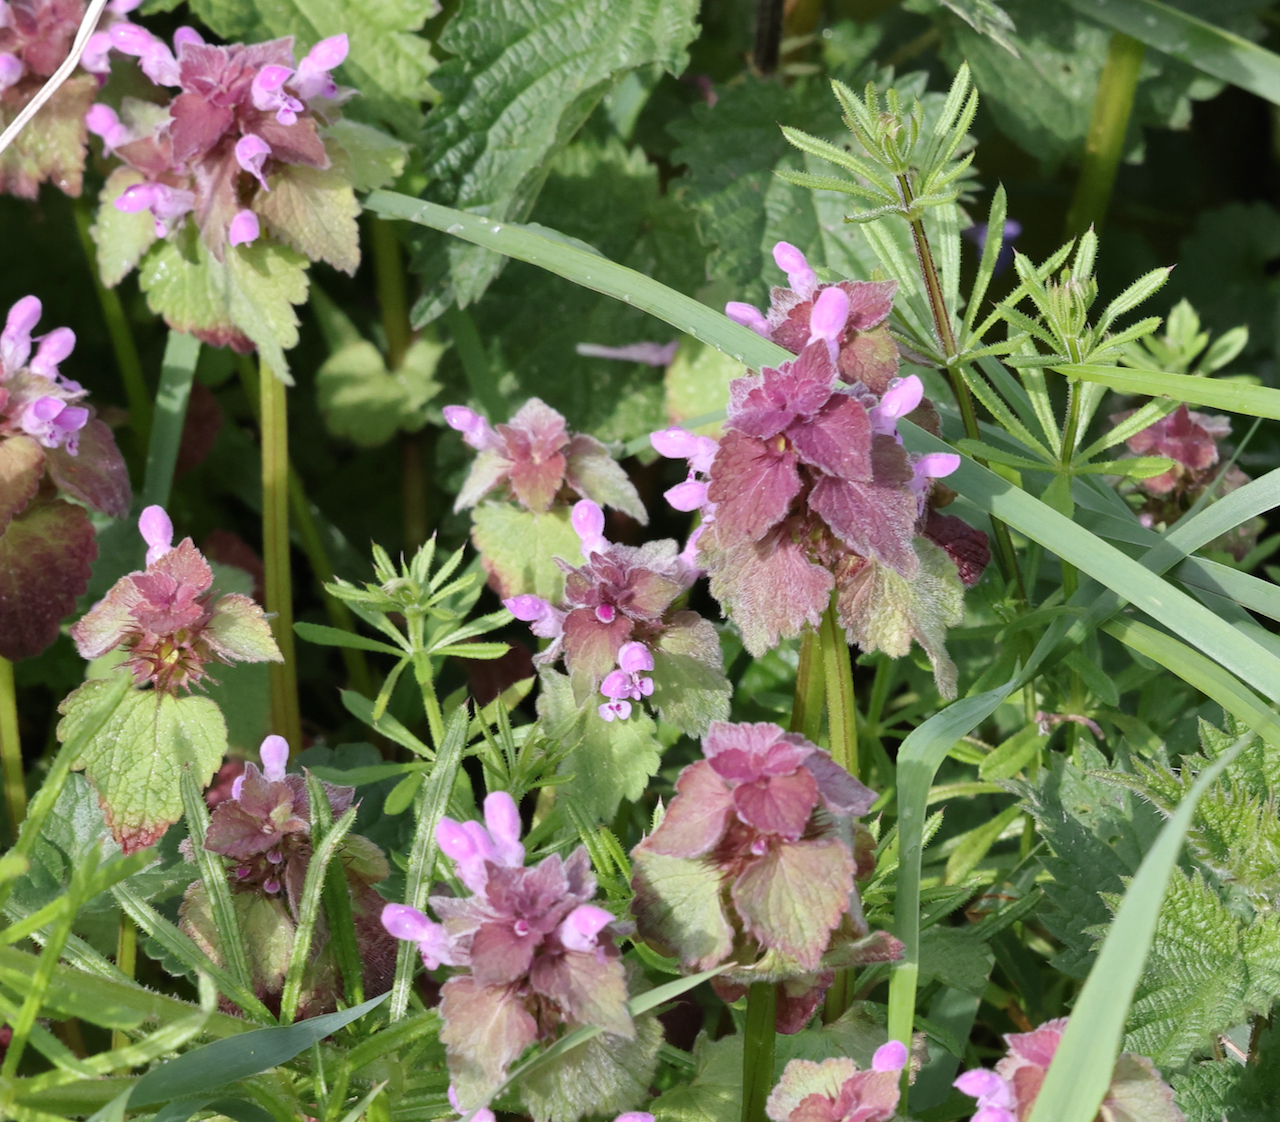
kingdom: Plantae
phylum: Tracheophyta
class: Magnoliopsida
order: Lamiales
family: Lamiaceae
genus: Lamium
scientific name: Lamium purpureum
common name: Red dead-nettle
